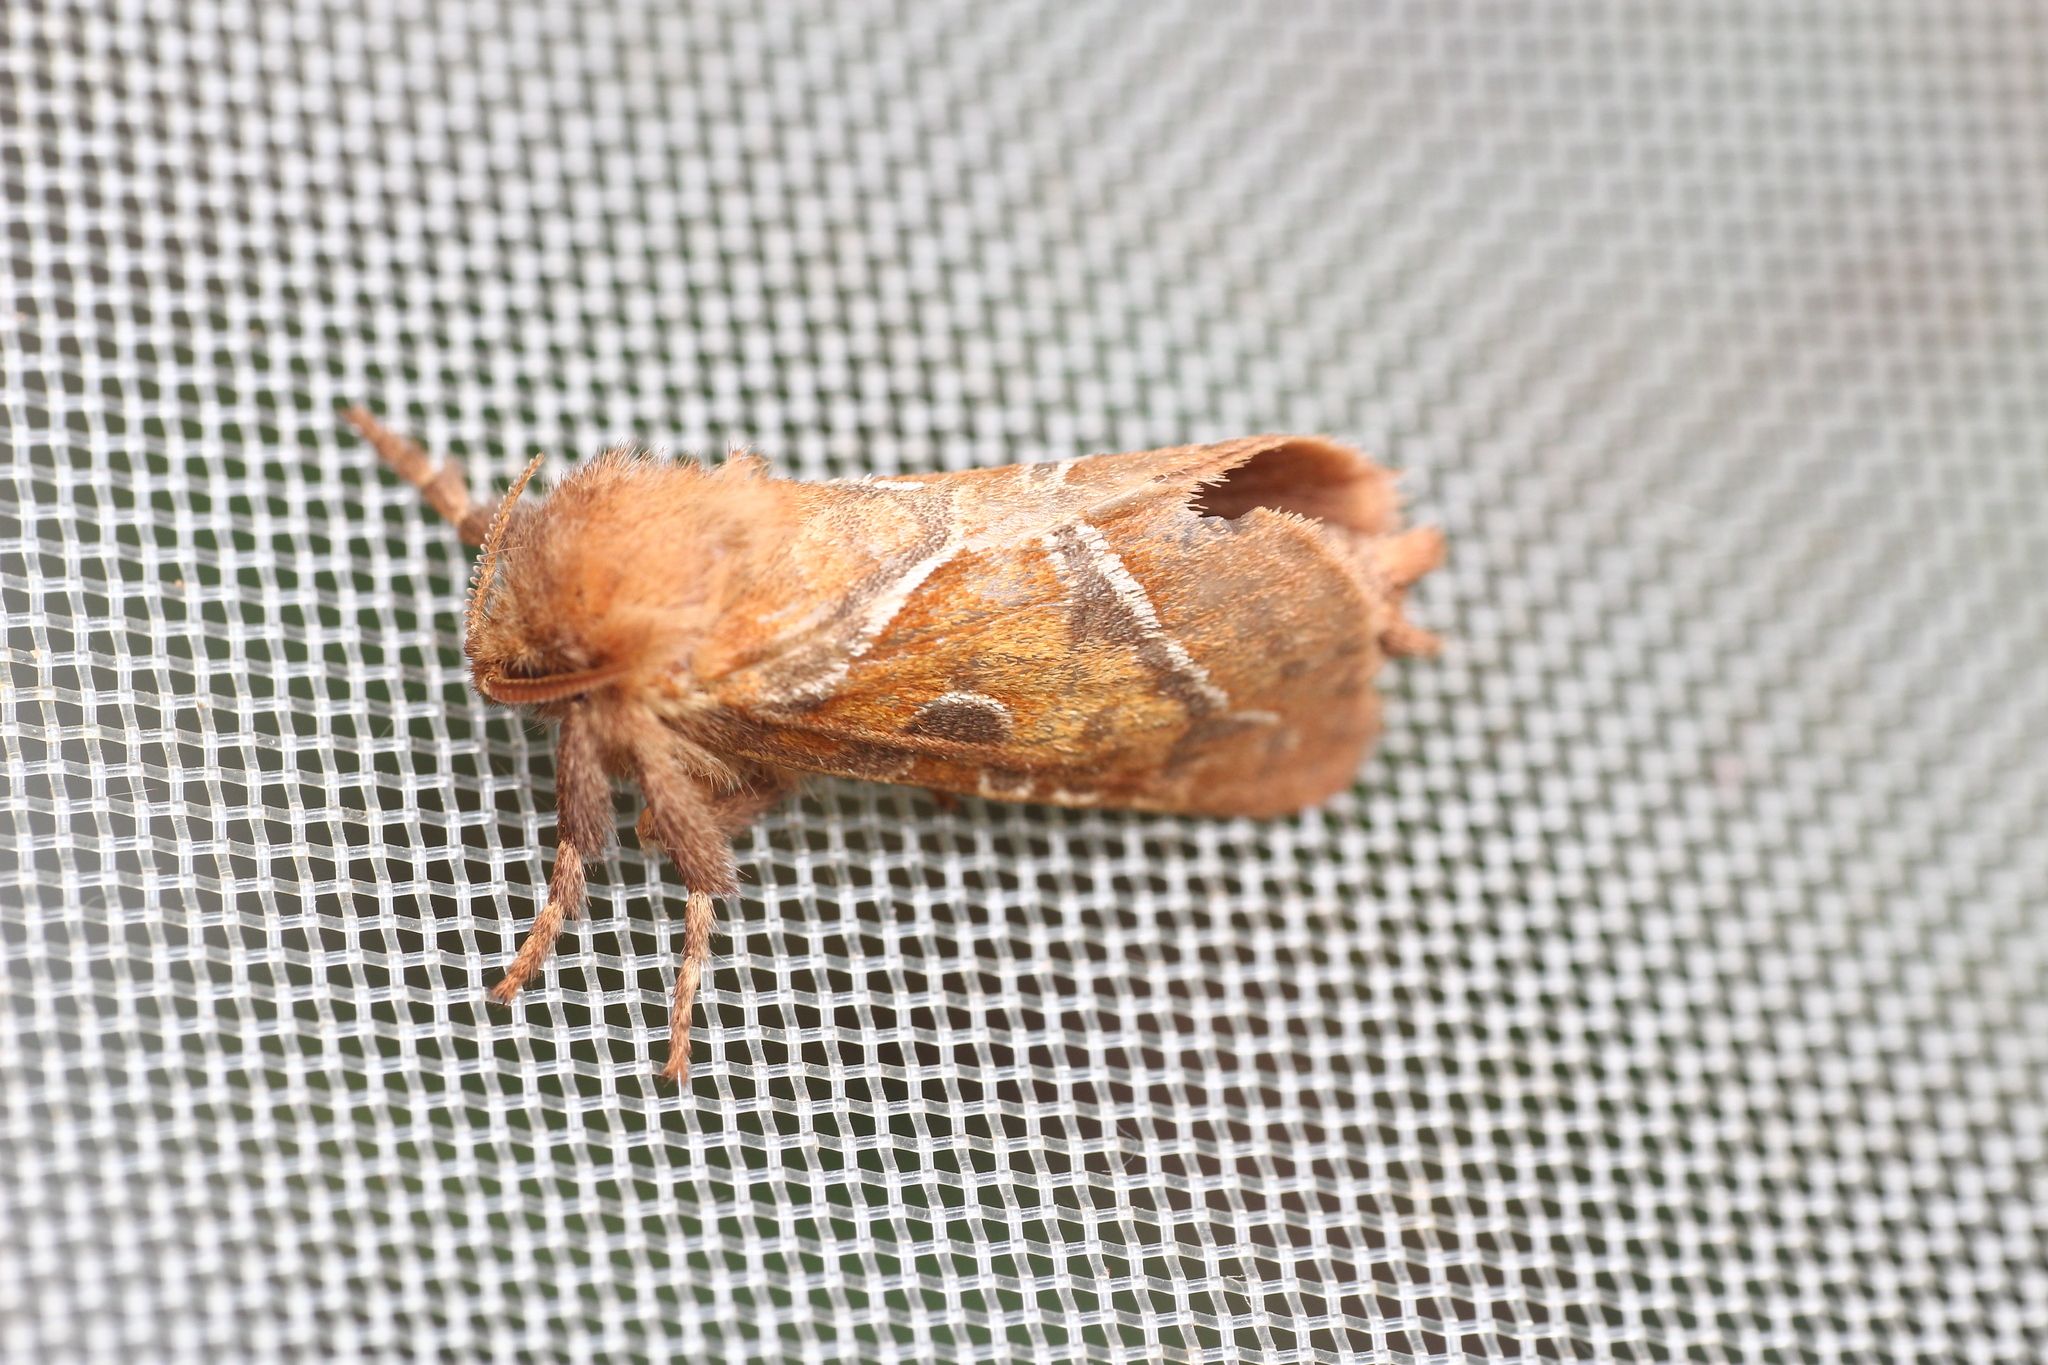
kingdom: Animalia
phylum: Arthropoda
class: Insecta
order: Lepidoptera
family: Hepialidae
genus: Triodia
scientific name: Triodia sylvina
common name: Orange swift
